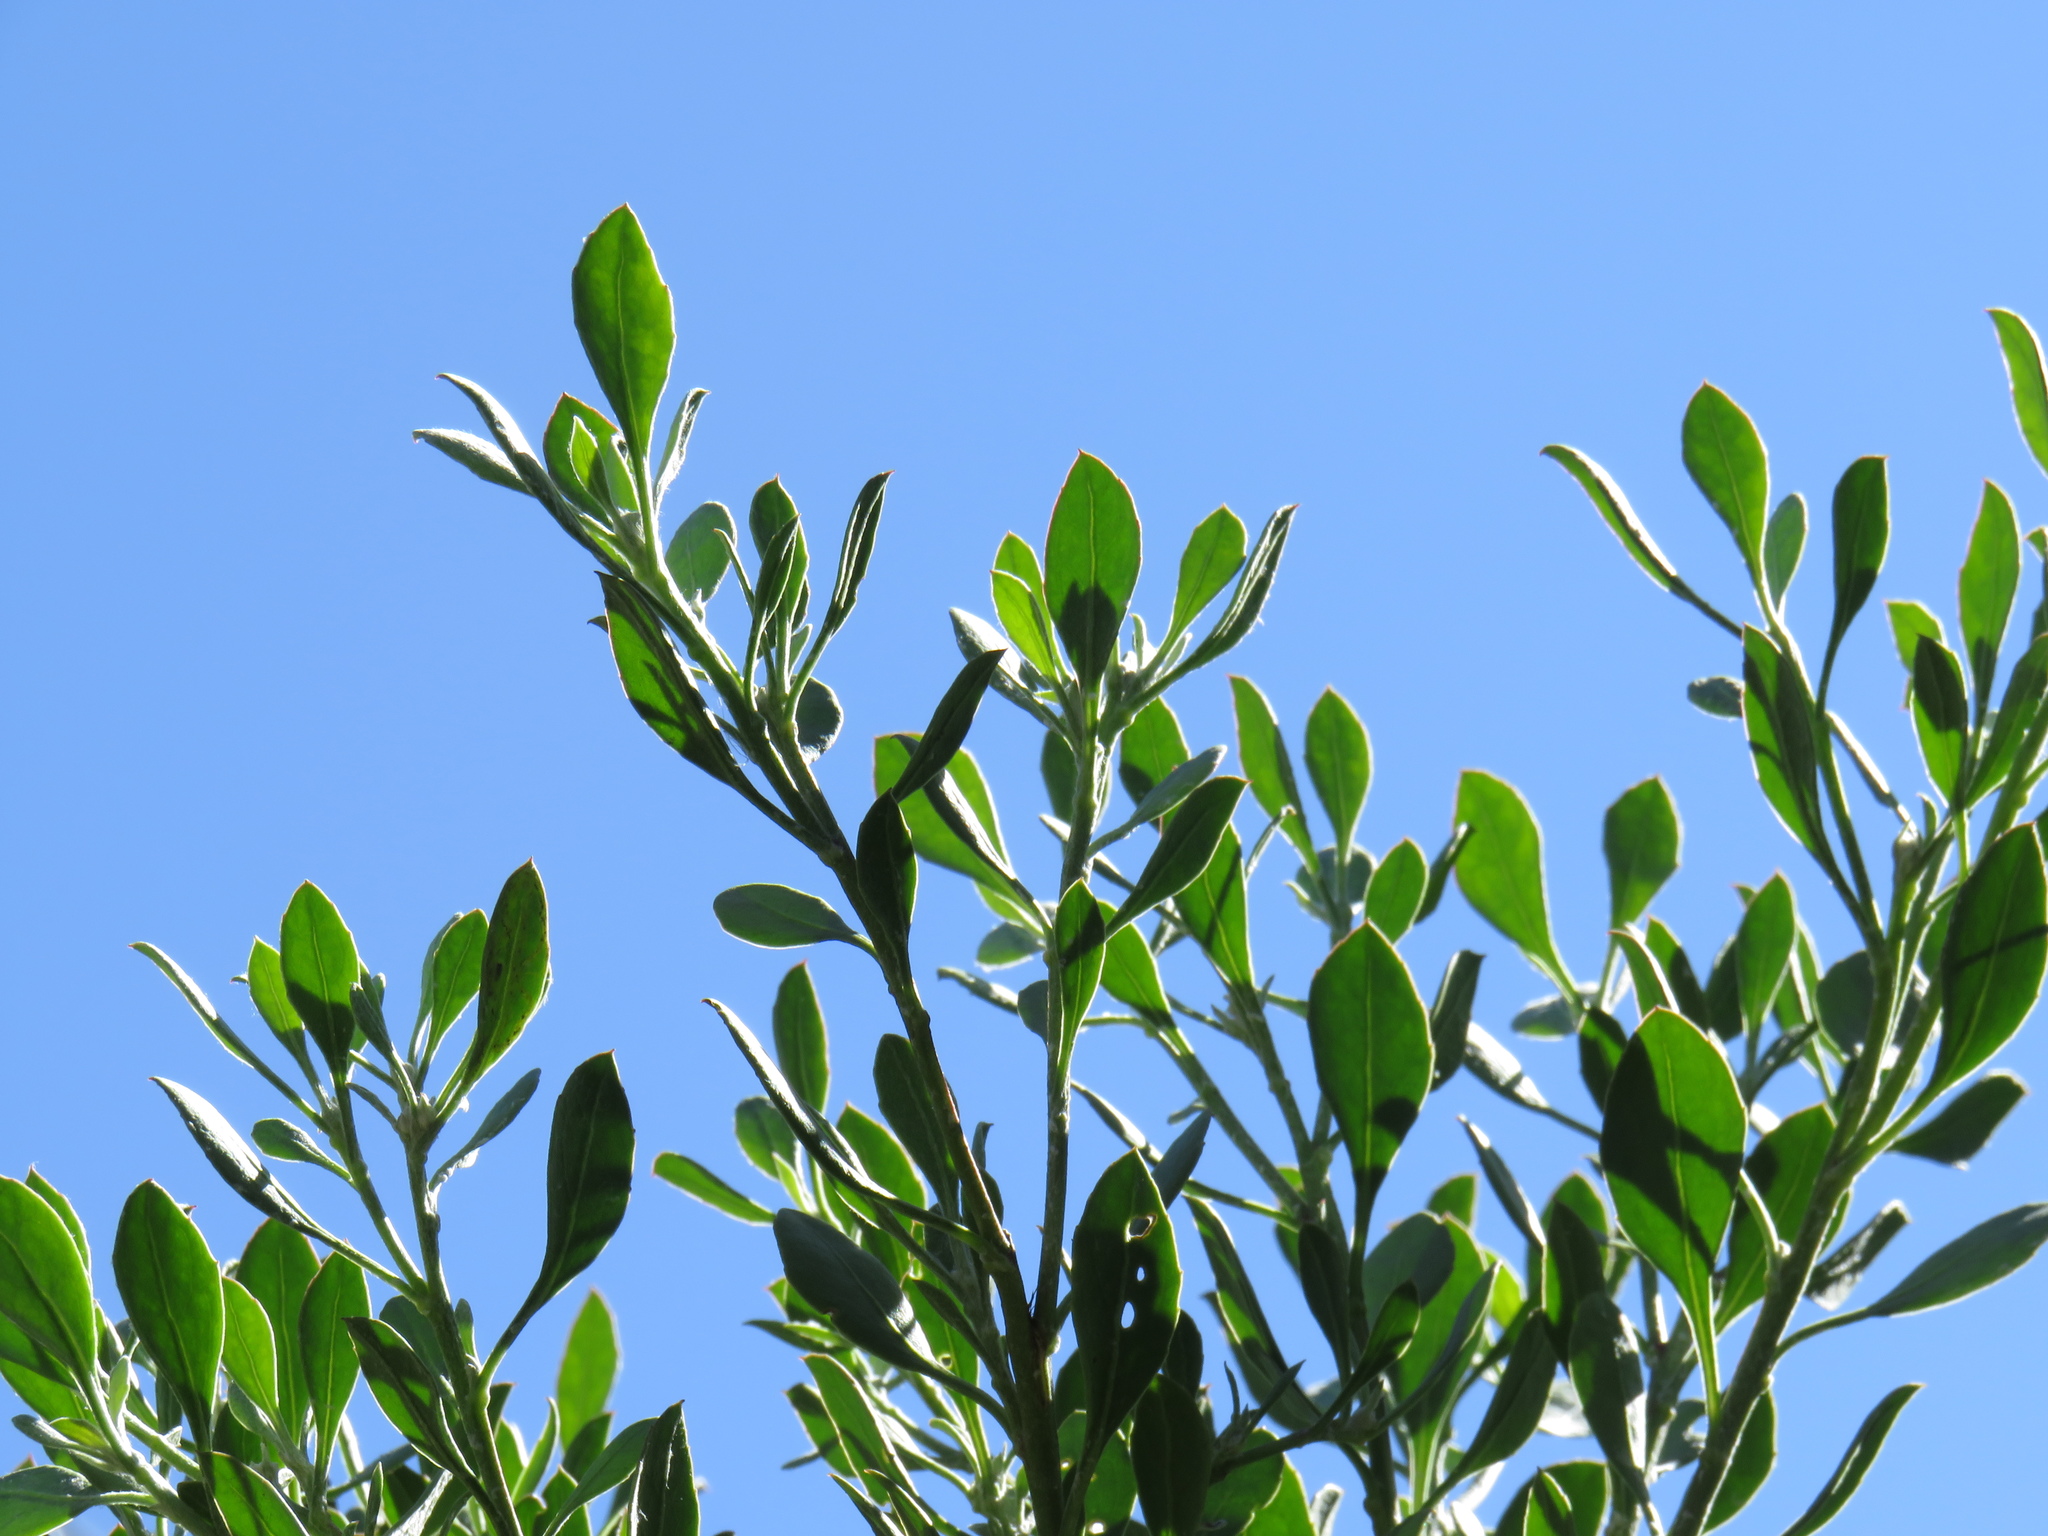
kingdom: Plantae
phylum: Tracheophyta
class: Magnoliopsida
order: Asterales
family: Asteraceae
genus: Osteospermum
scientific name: Osteospermum moniliferum
